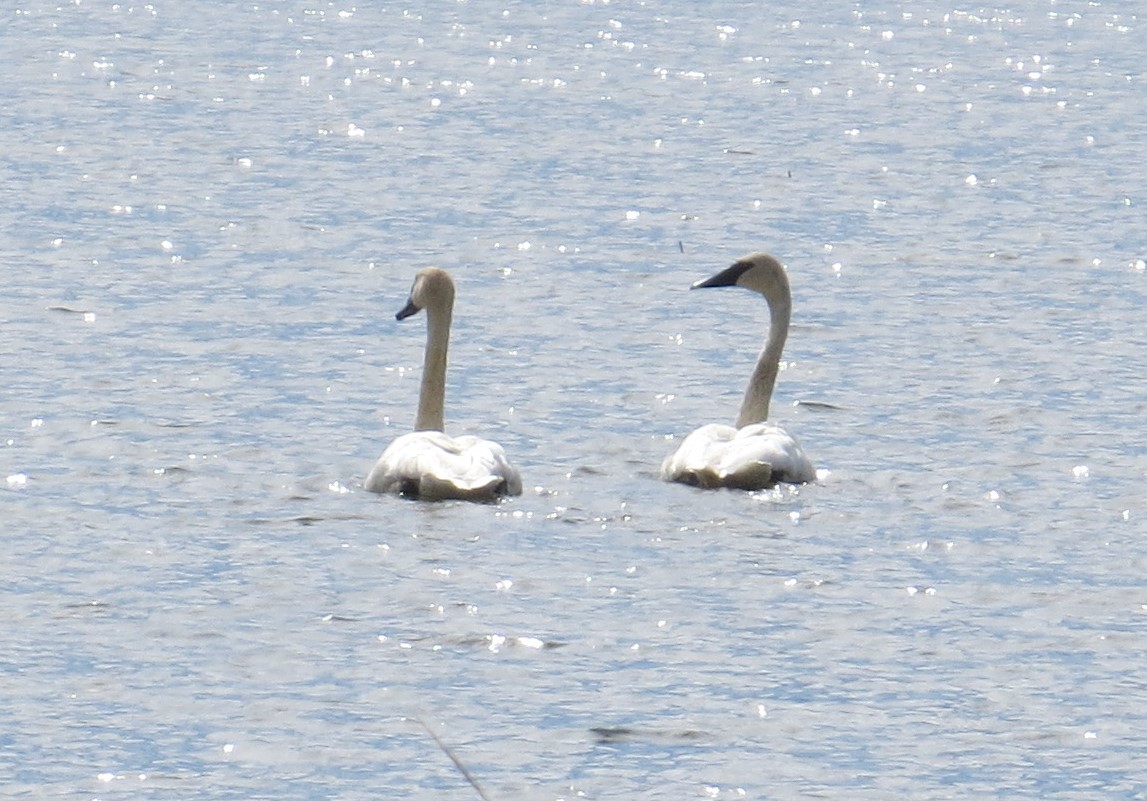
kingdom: Animalia
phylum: Chordata
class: Aves
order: Anseriformes
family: Anatidae
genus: Cygnus
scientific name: Cygnus buccinator
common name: Trumpeter swan
